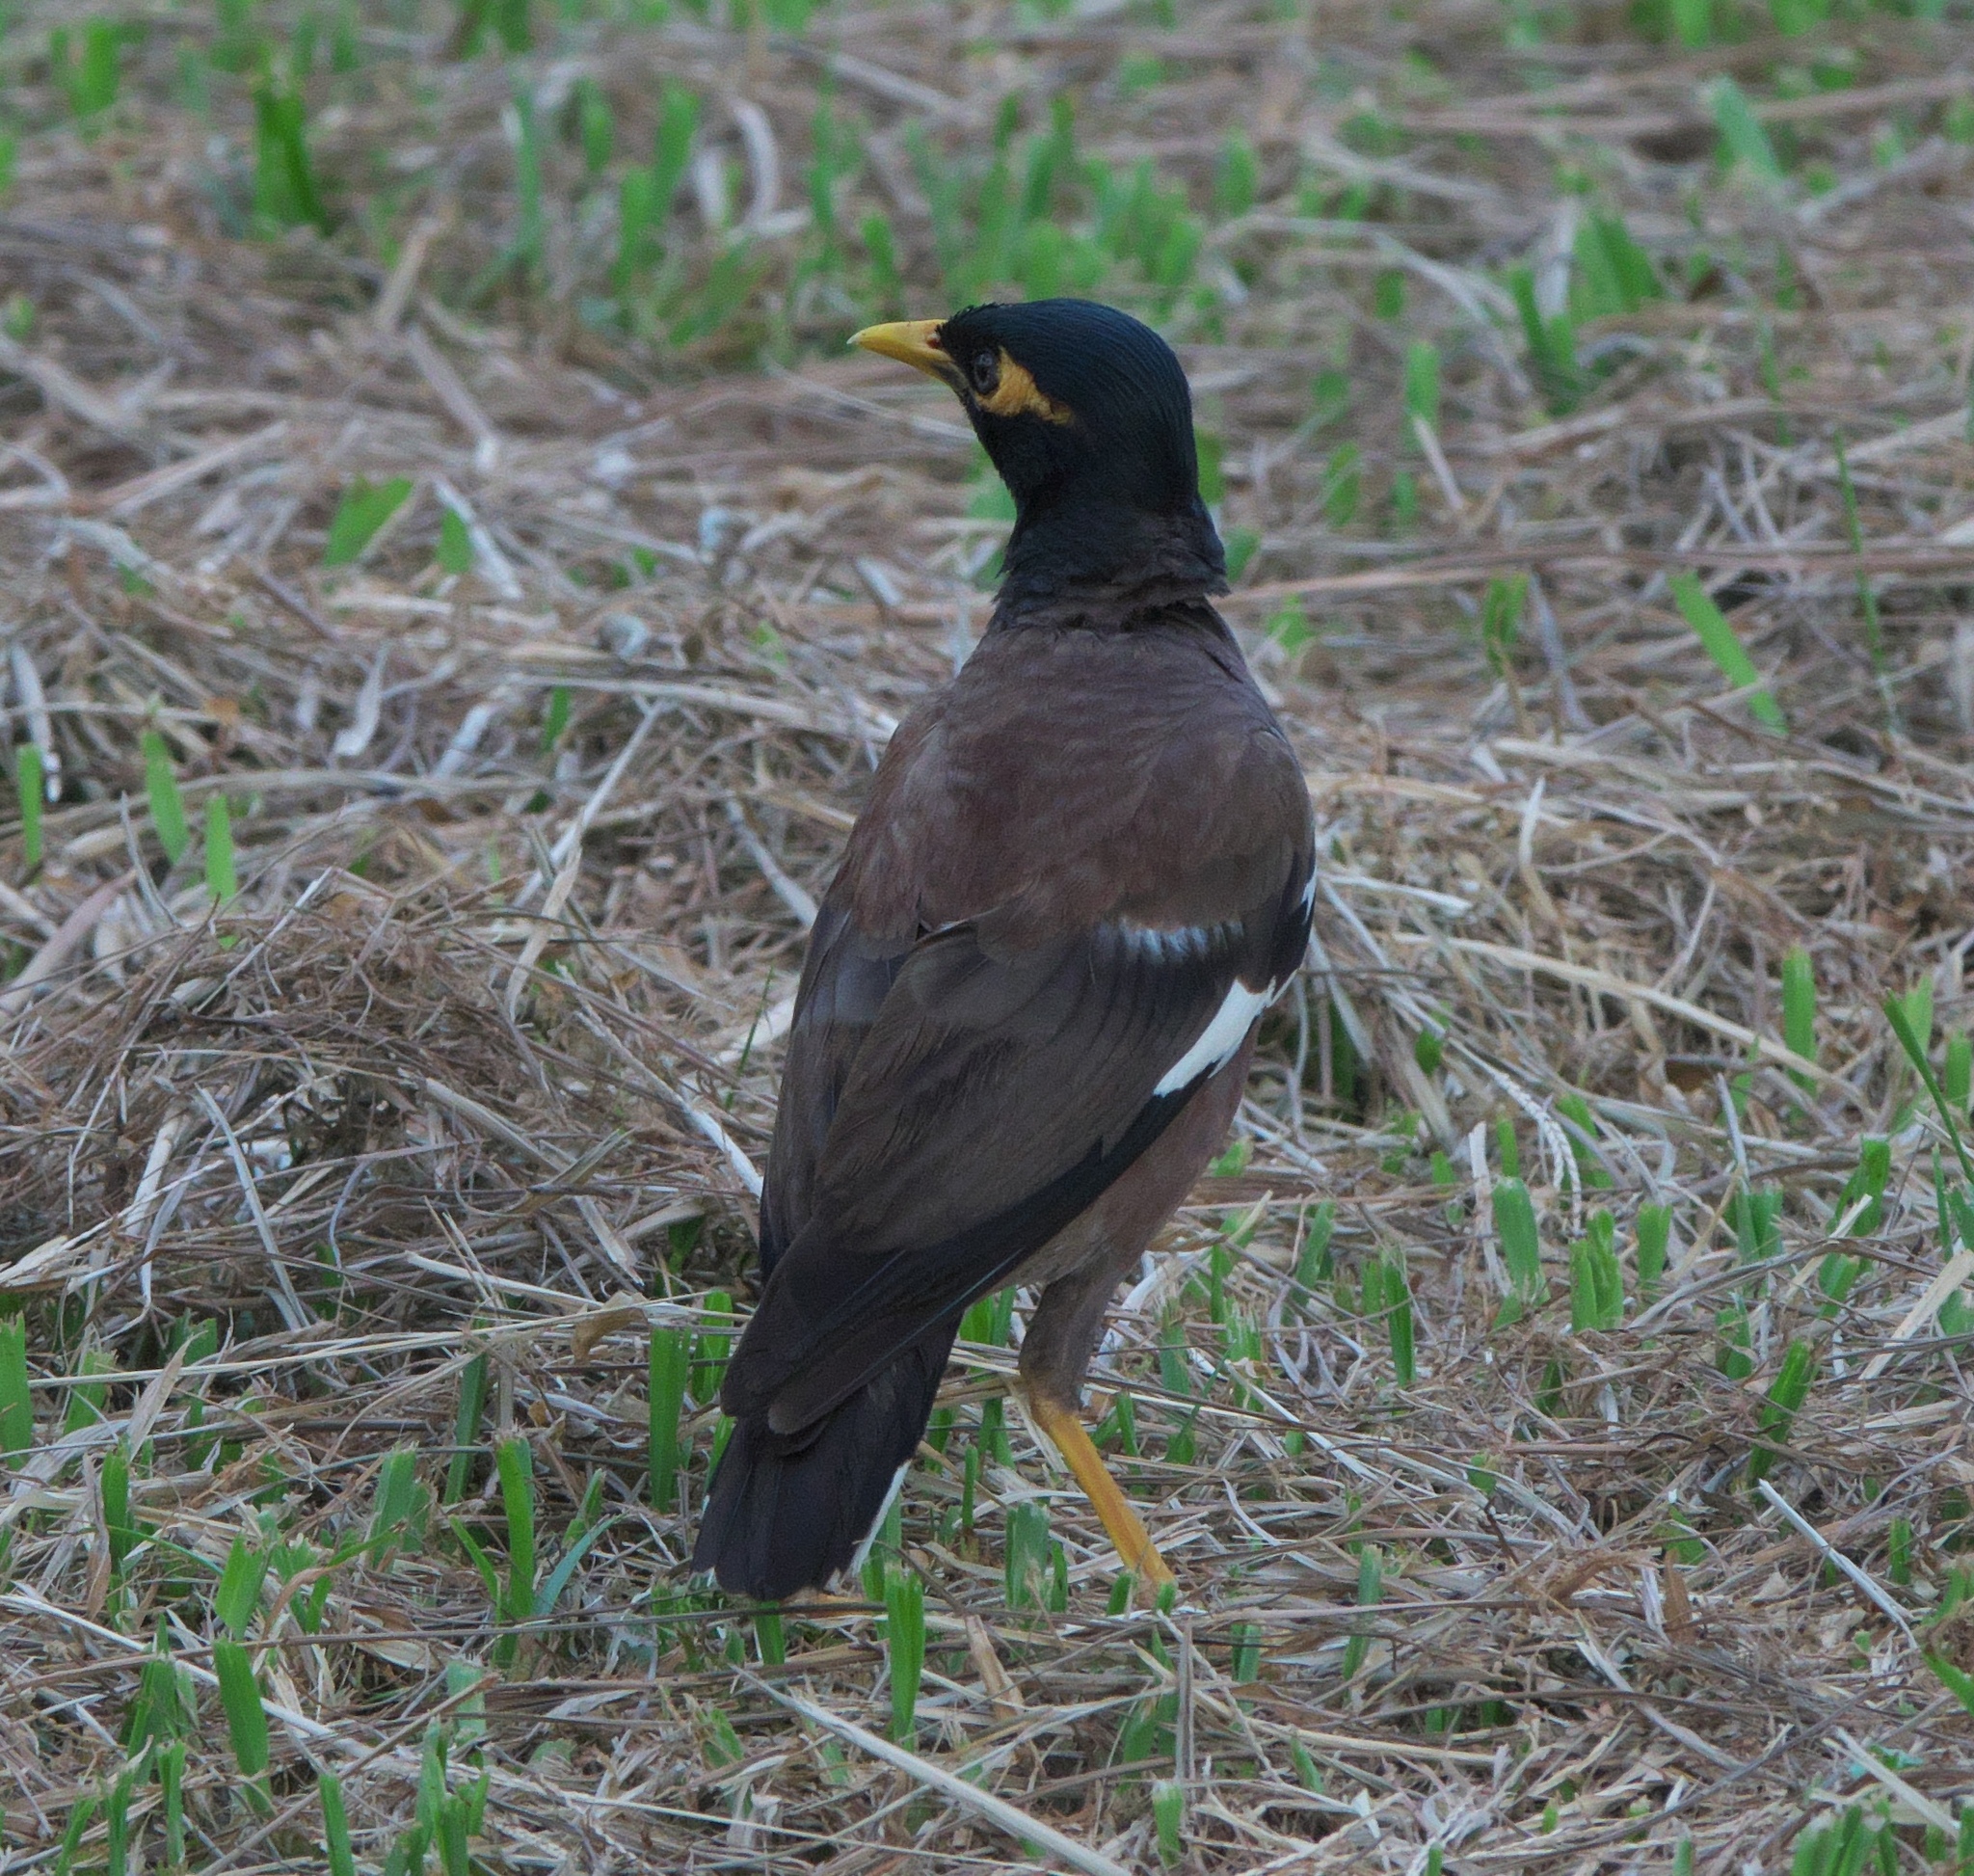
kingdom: Animalia
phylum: Chordata
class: Aves
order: Passeriformes
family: Sturnidae
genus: Acridotheres
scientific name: Acridotheres tristis
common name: Common myna
